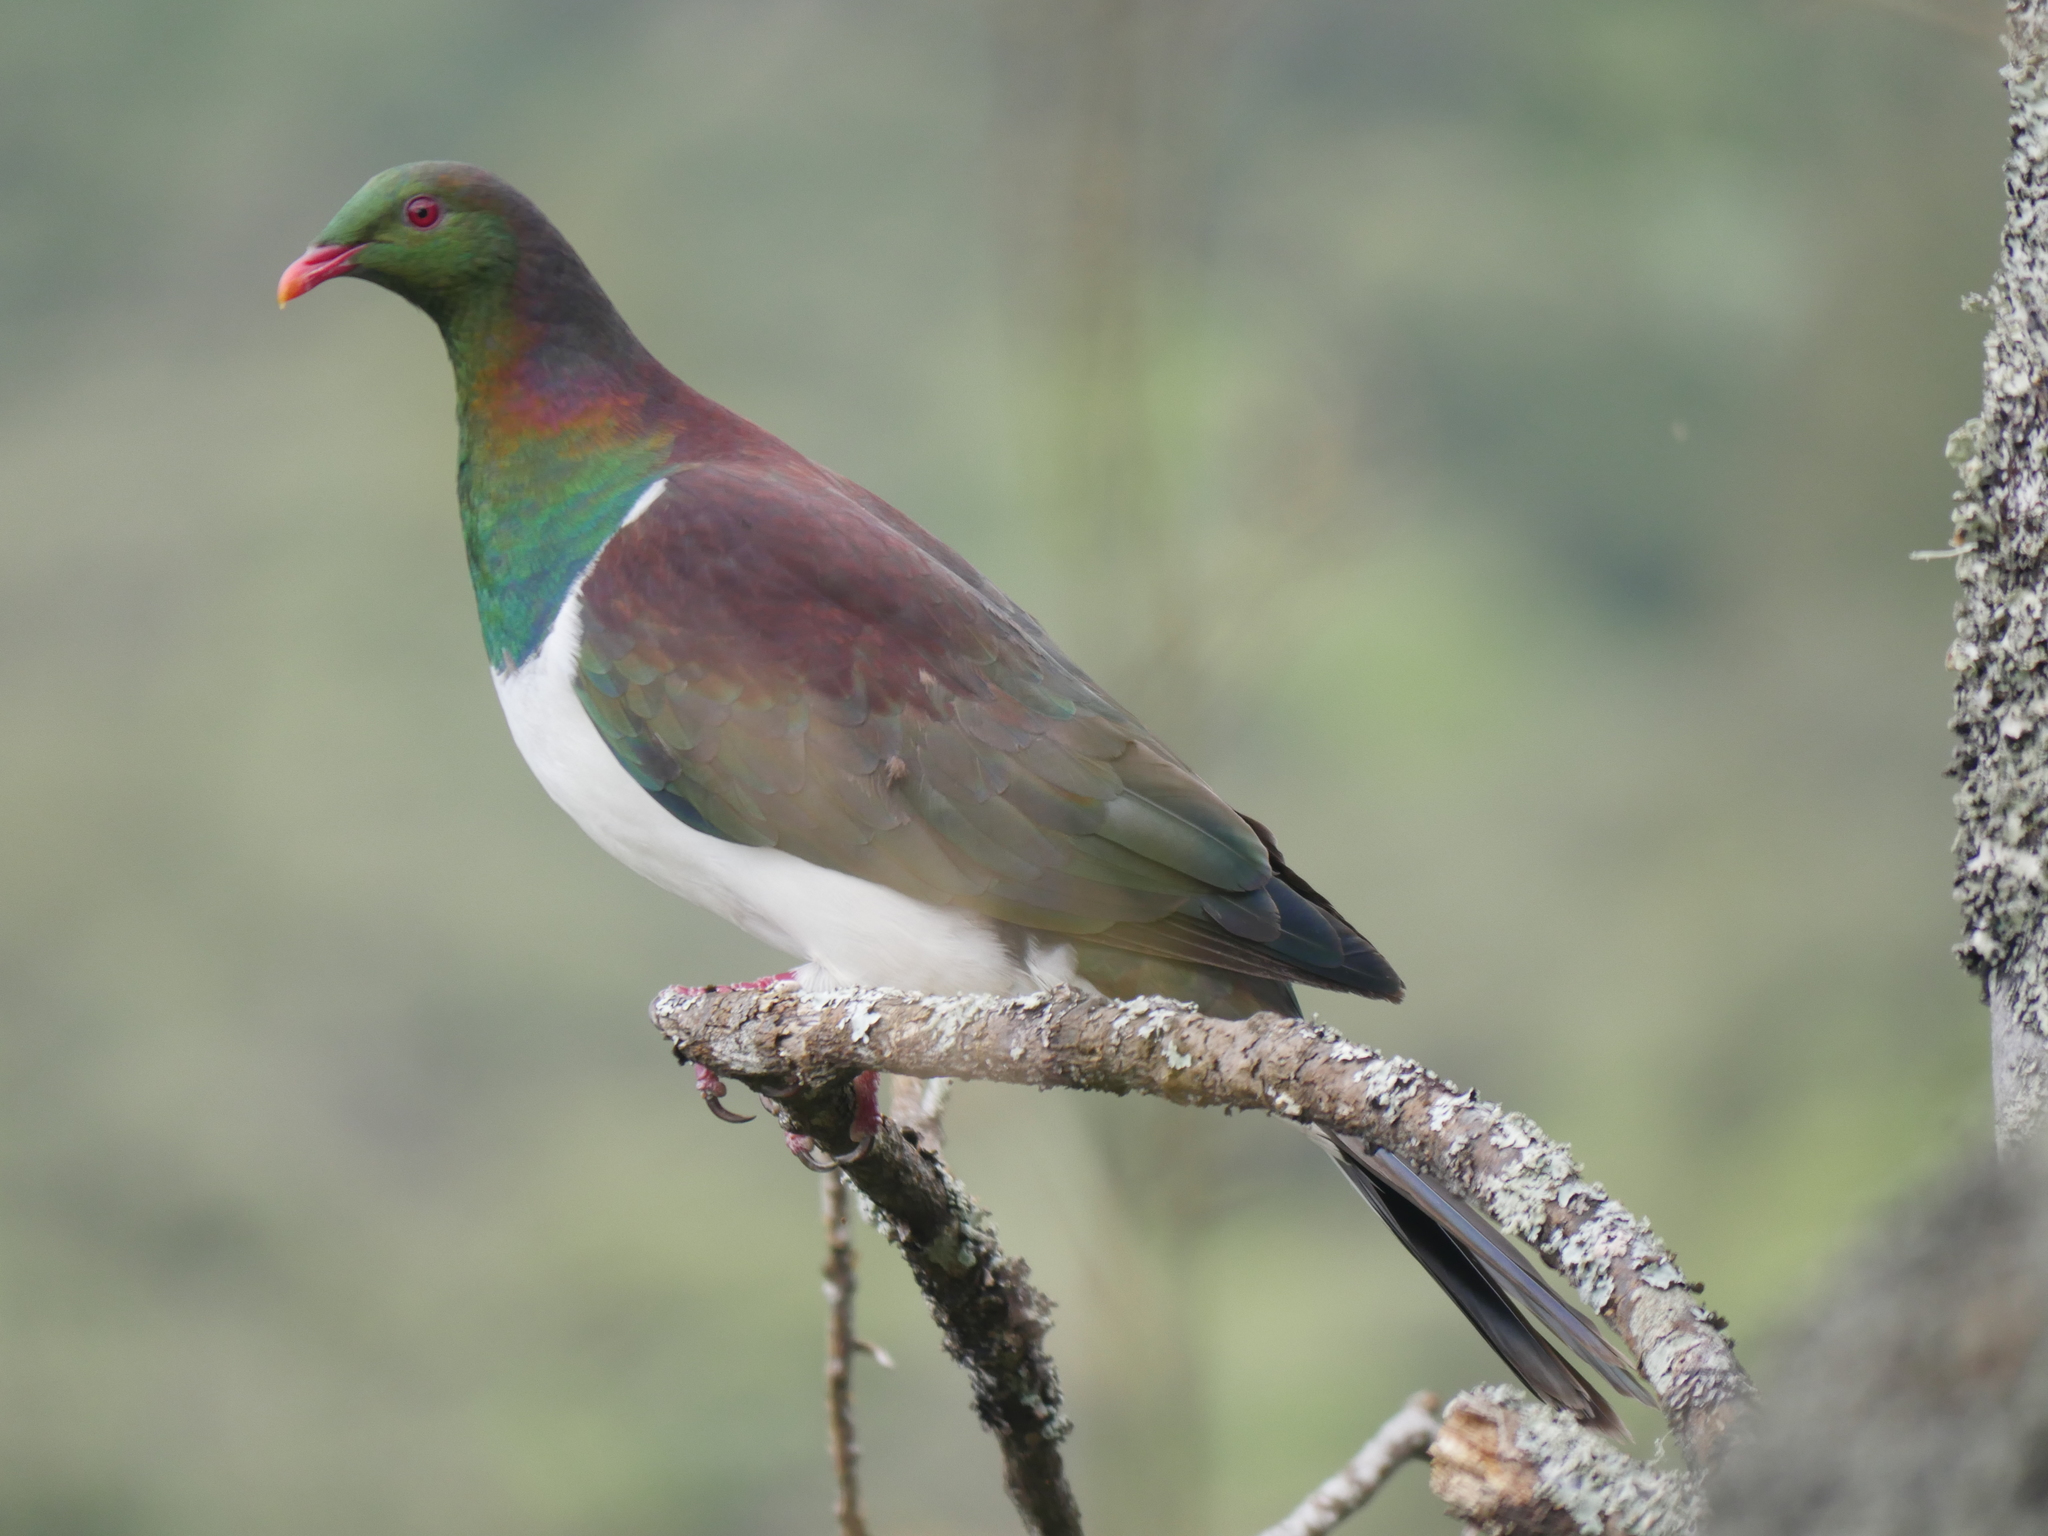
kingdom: Animalia
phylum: Chordata
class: Aves
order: Columbiformes
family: Columbidae
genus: Hemiphaga
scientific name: Hemiphaga novaeseelandiae
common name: New zealand pigeon
